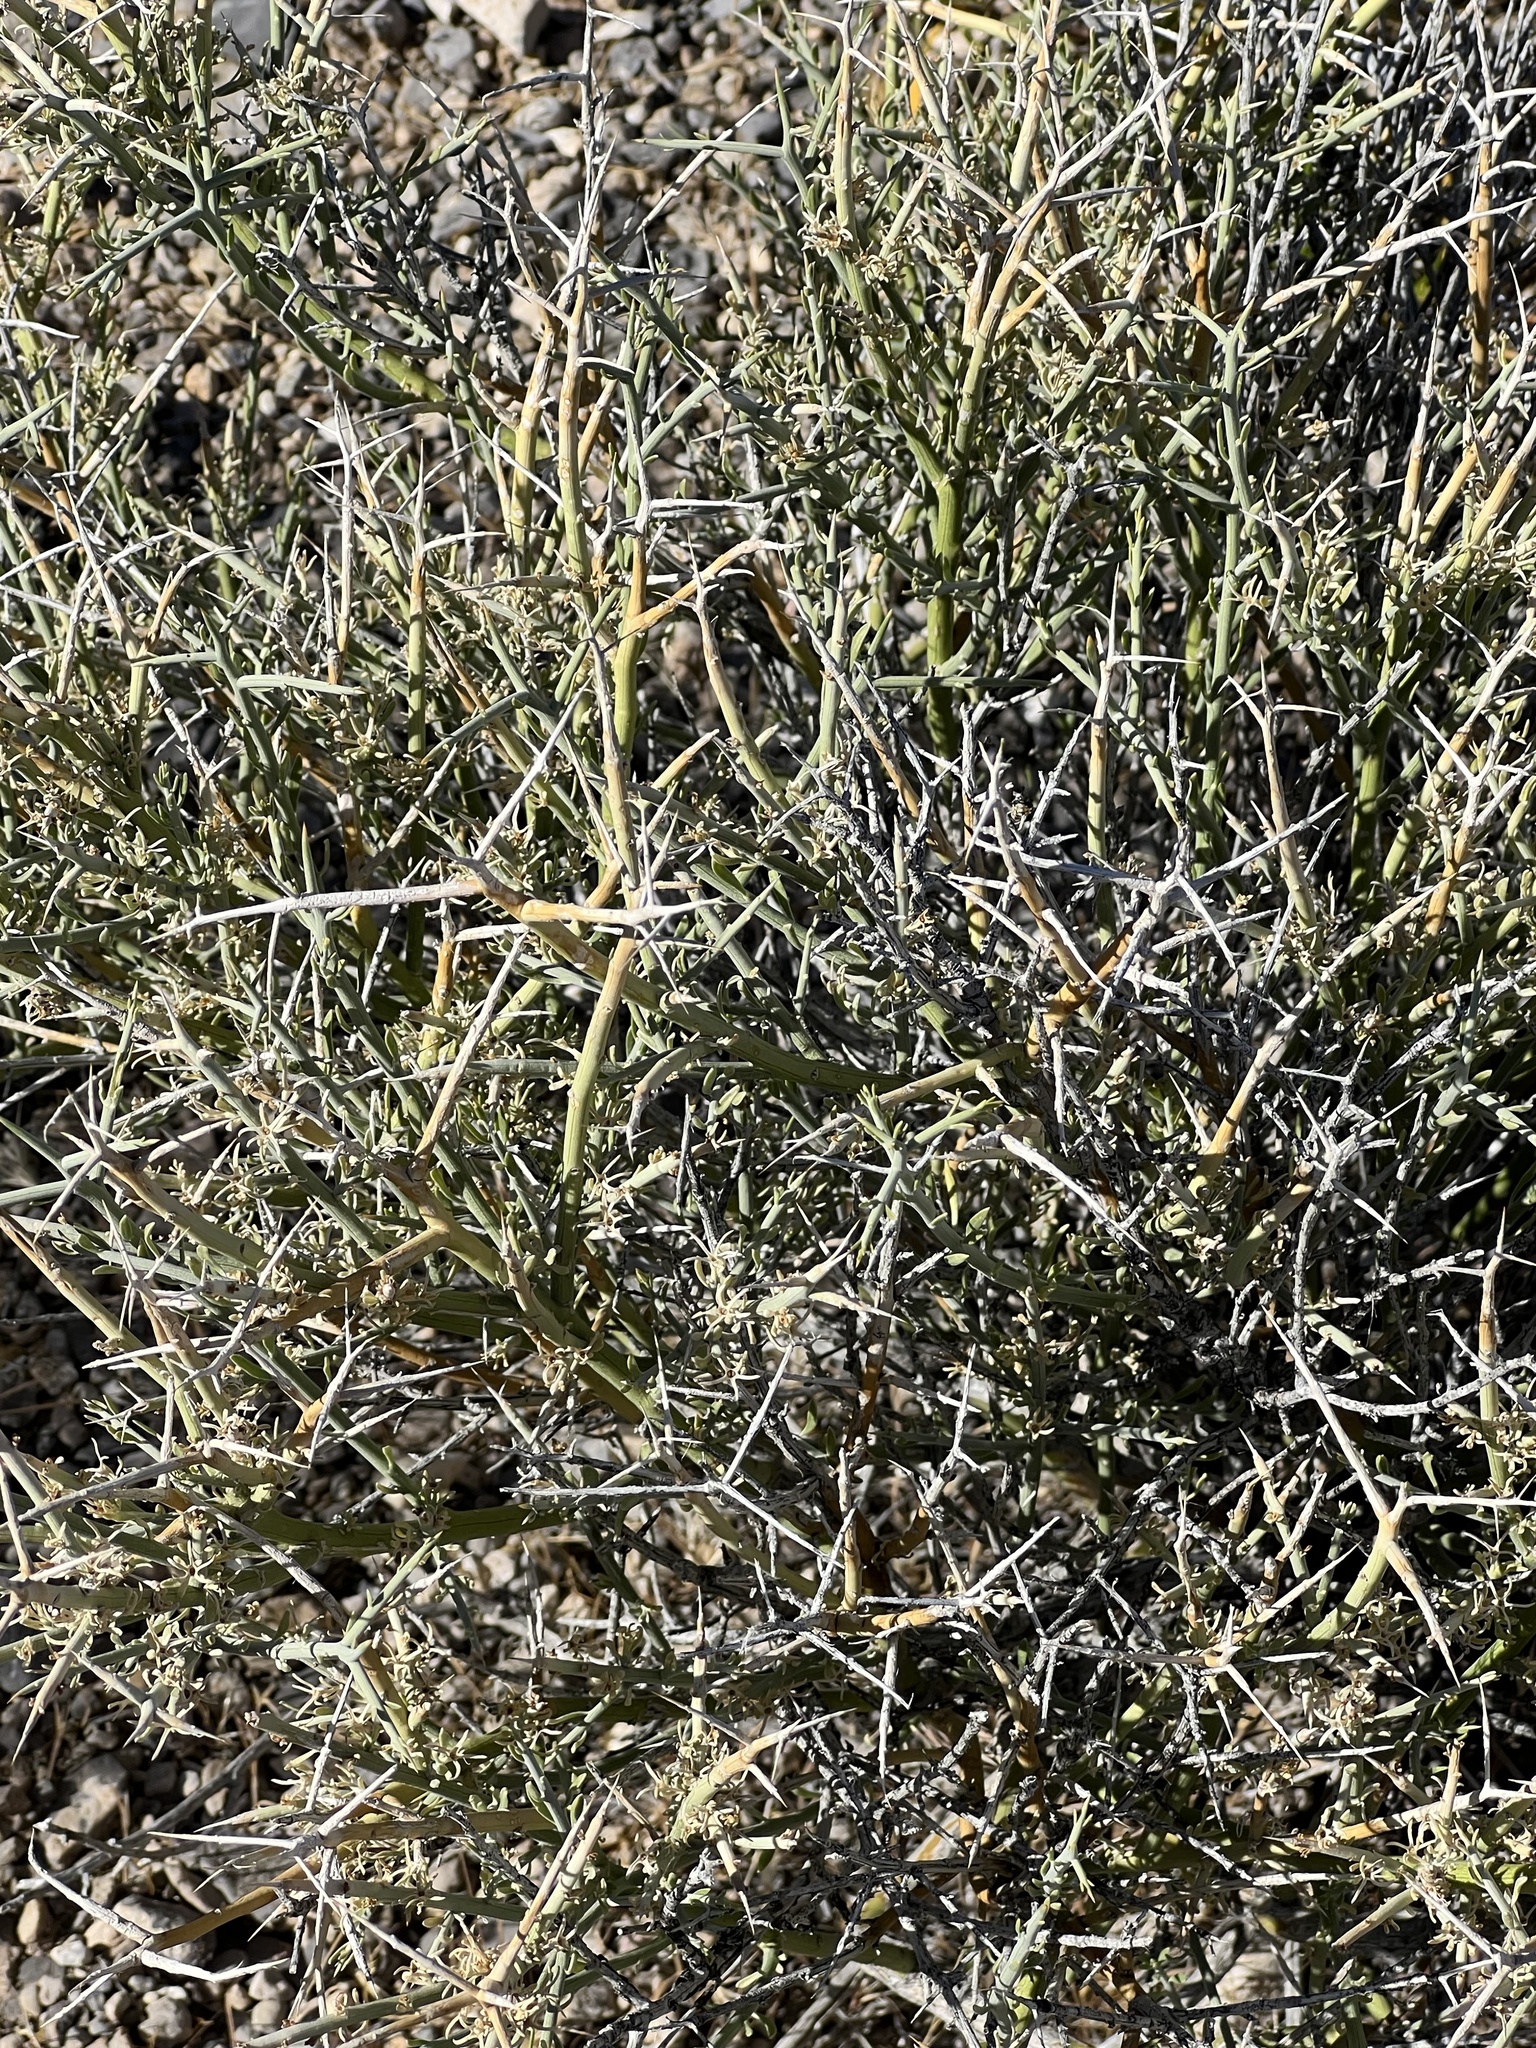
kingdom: Plantae
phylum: Tracheophyta
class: Magnoliopsida
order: Lamiales
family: Oleaceae
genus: Menodora
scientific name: Menodora spinescens
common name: Spiny menodora
